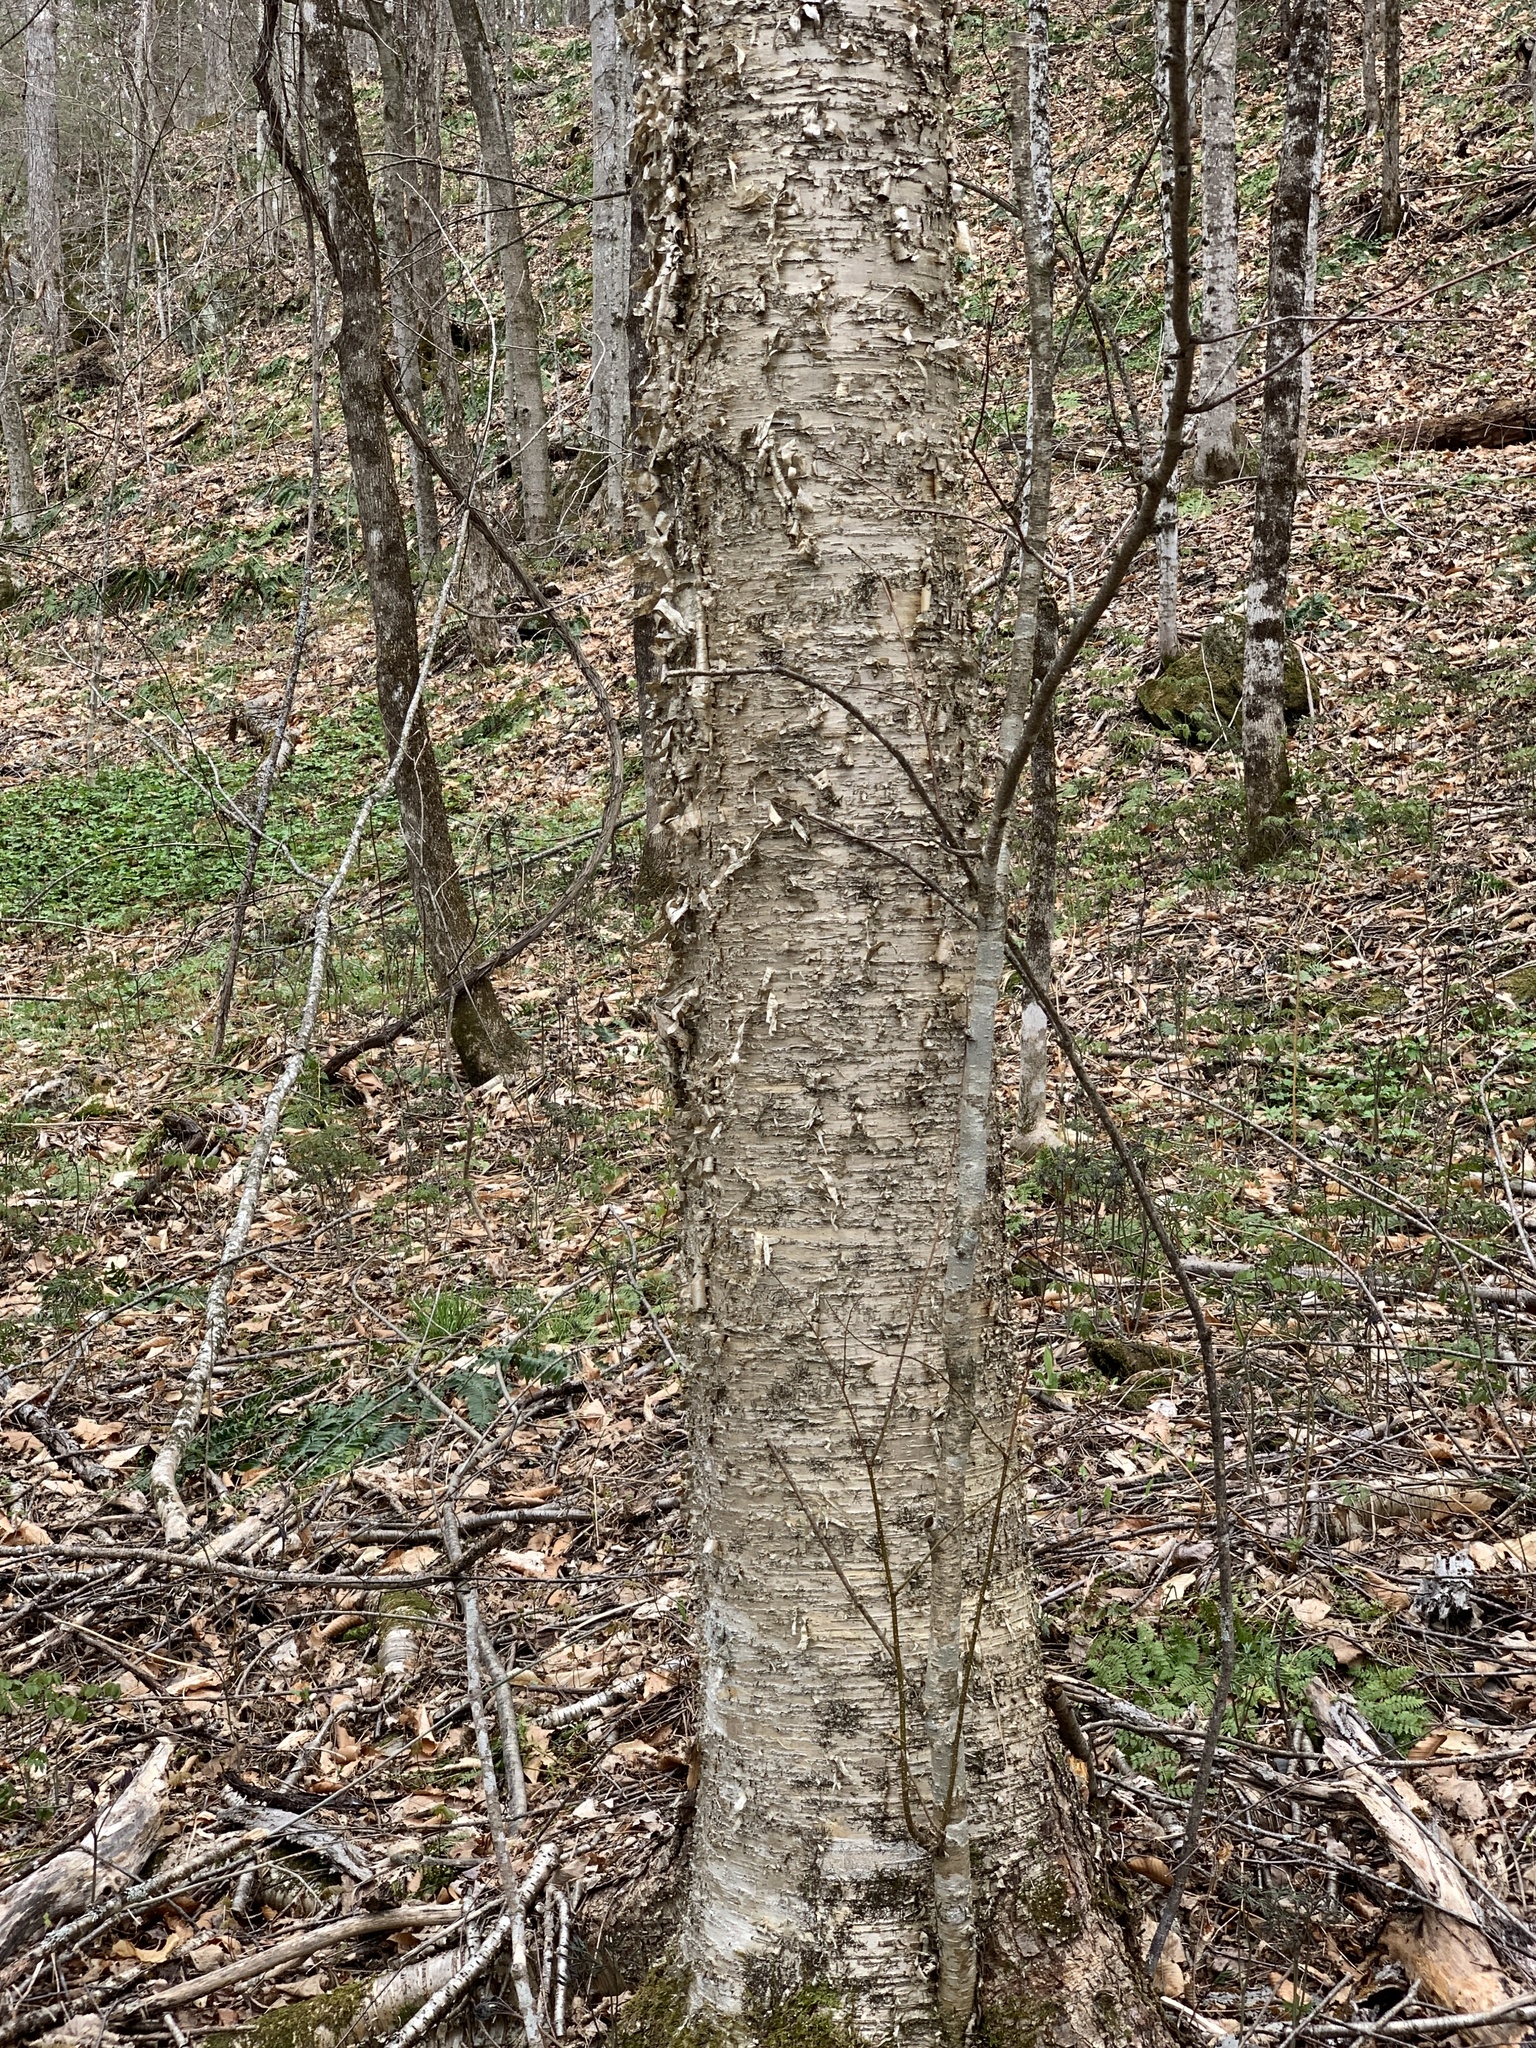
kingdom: Plantae
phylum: Tracheophyta
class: Magnoliopsida
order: Fagales
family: Betulaceae
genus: Betula
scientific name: Betula alleghaniensis
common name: Yellow birch
